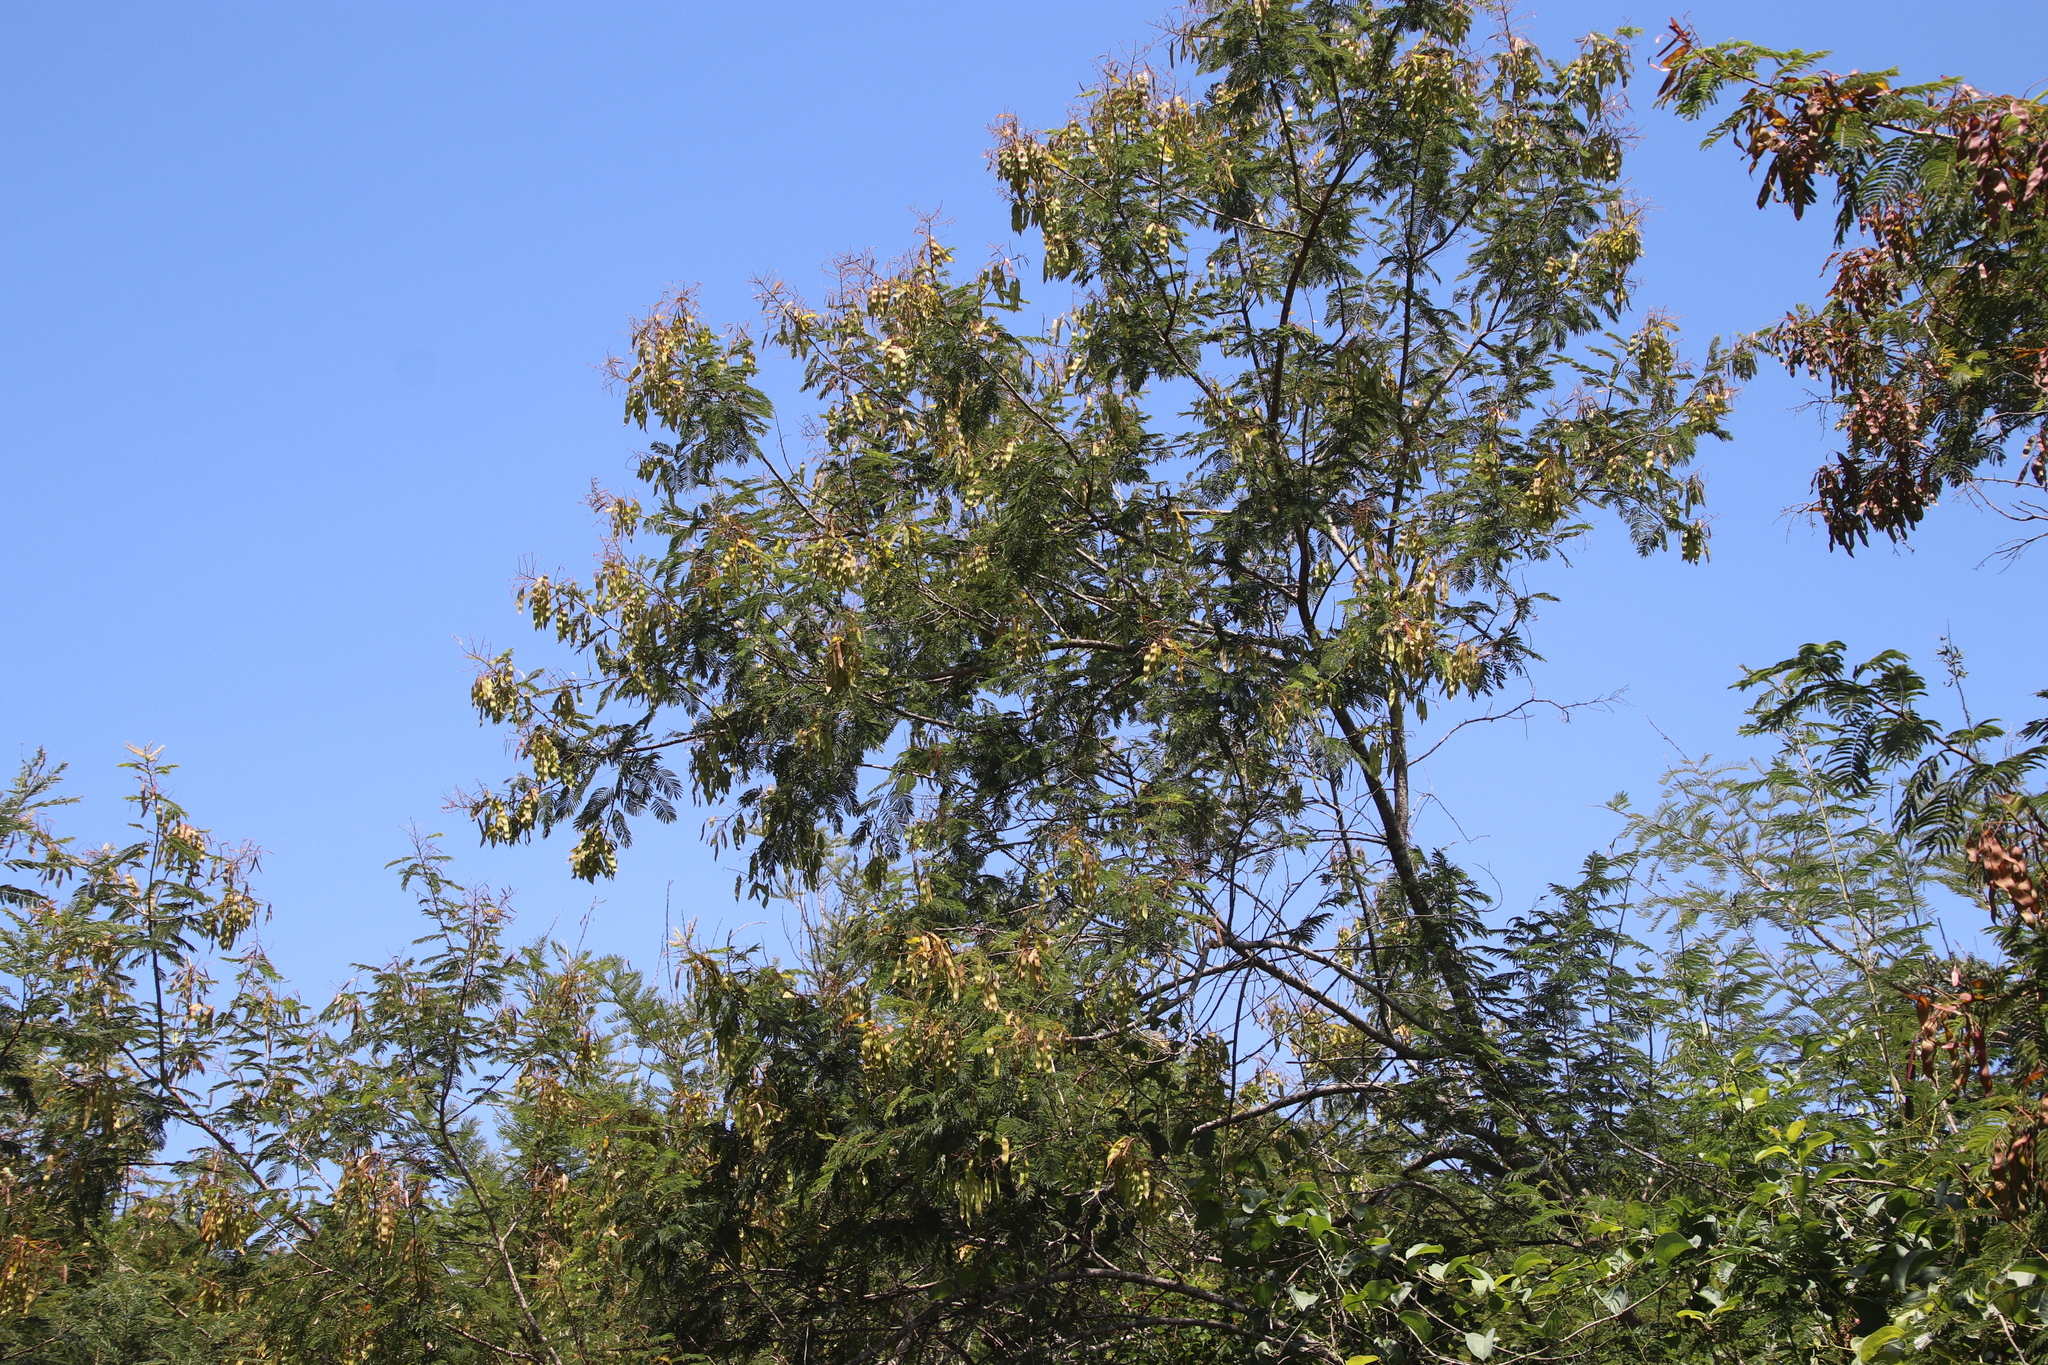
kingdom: Plantae
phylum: Tracheophyta
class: Magnoliopsida
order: Fabales
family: Fabaceae
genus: Senegalia
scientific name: Senegalia ataxacantha
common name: Flame acacia
